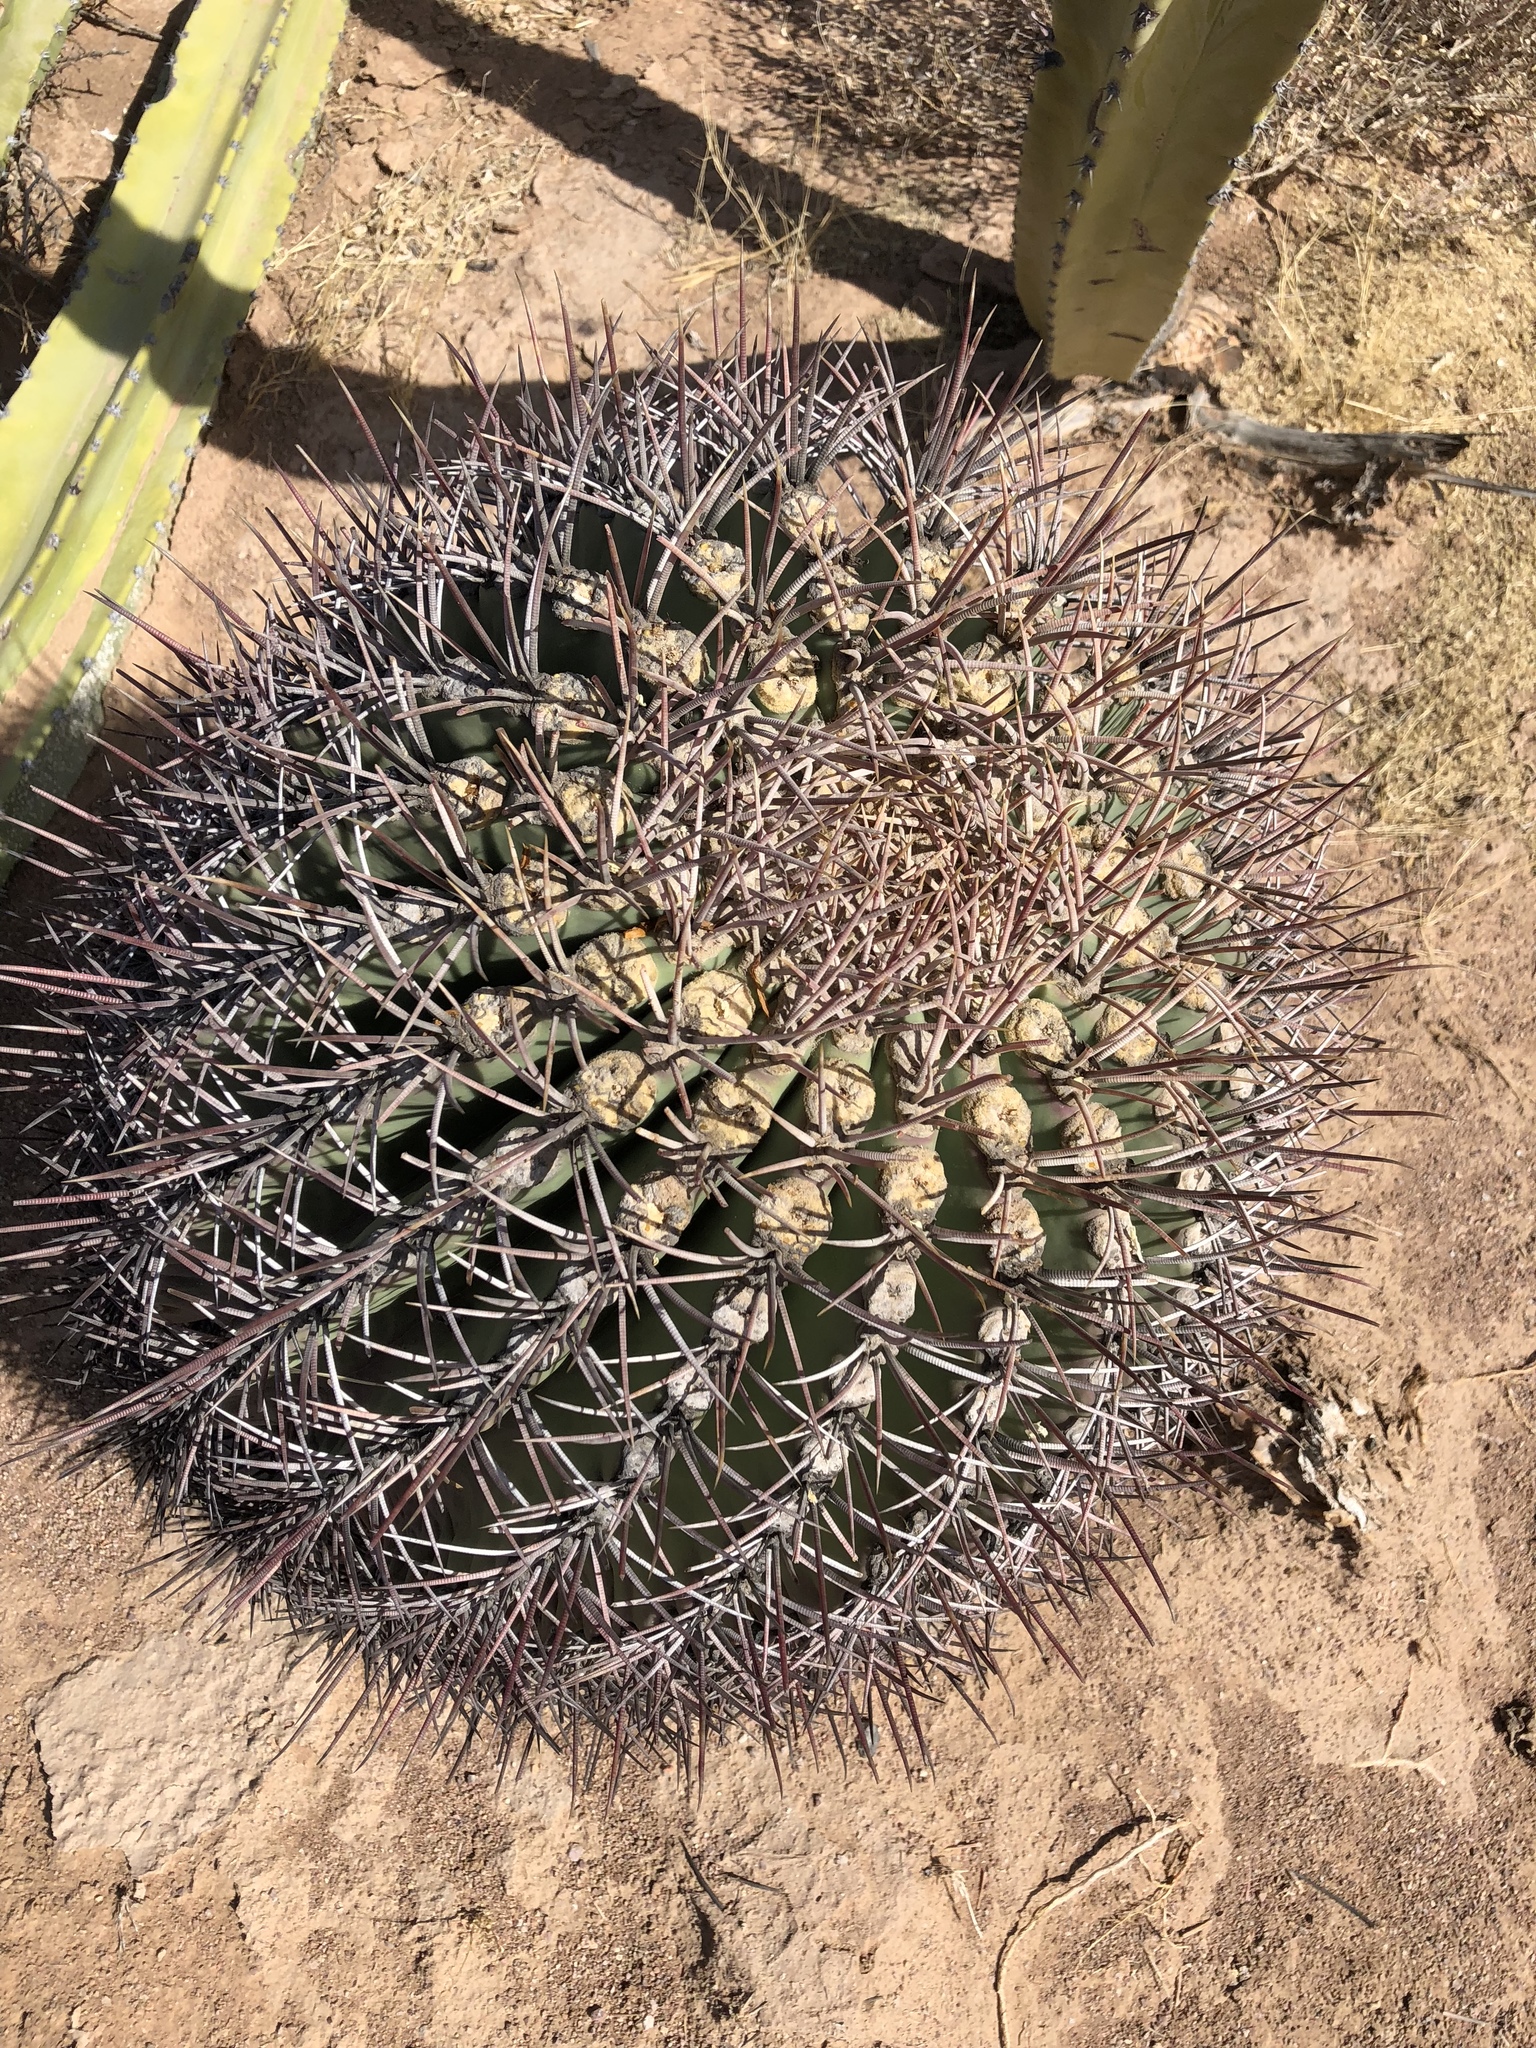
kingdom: Plantae
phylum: Tracheophyta
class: Magnoliopsida
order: Caryophyllales
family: Cactaceae
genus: Ferocactus
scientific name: Ferocactus emoryi
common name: Emory's barrel cactus
